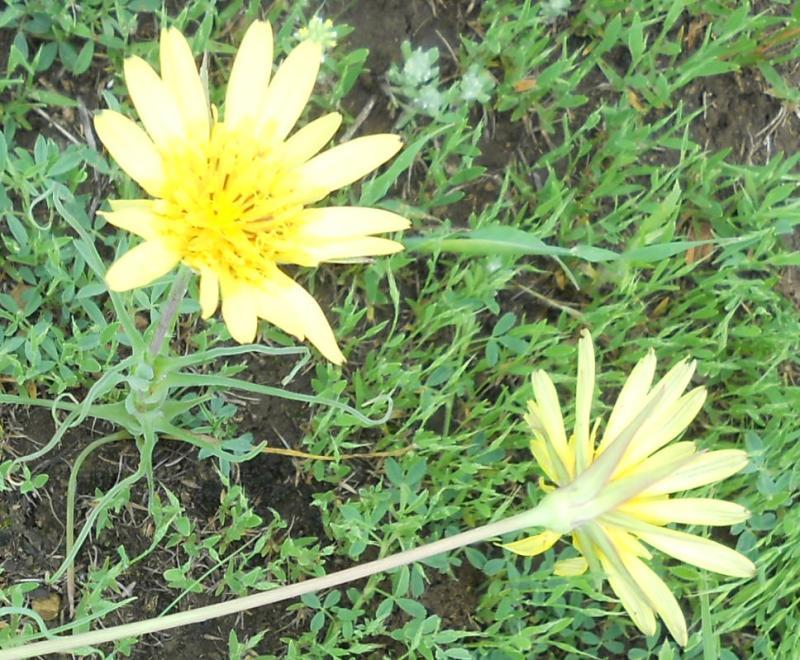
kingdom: Plantae
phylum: Tracheophyta
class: Magnoliopsida
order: Asterales
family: Asteraceae
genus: Tragopogon
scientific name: Tragopogon dubius
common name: Yellow salsify
